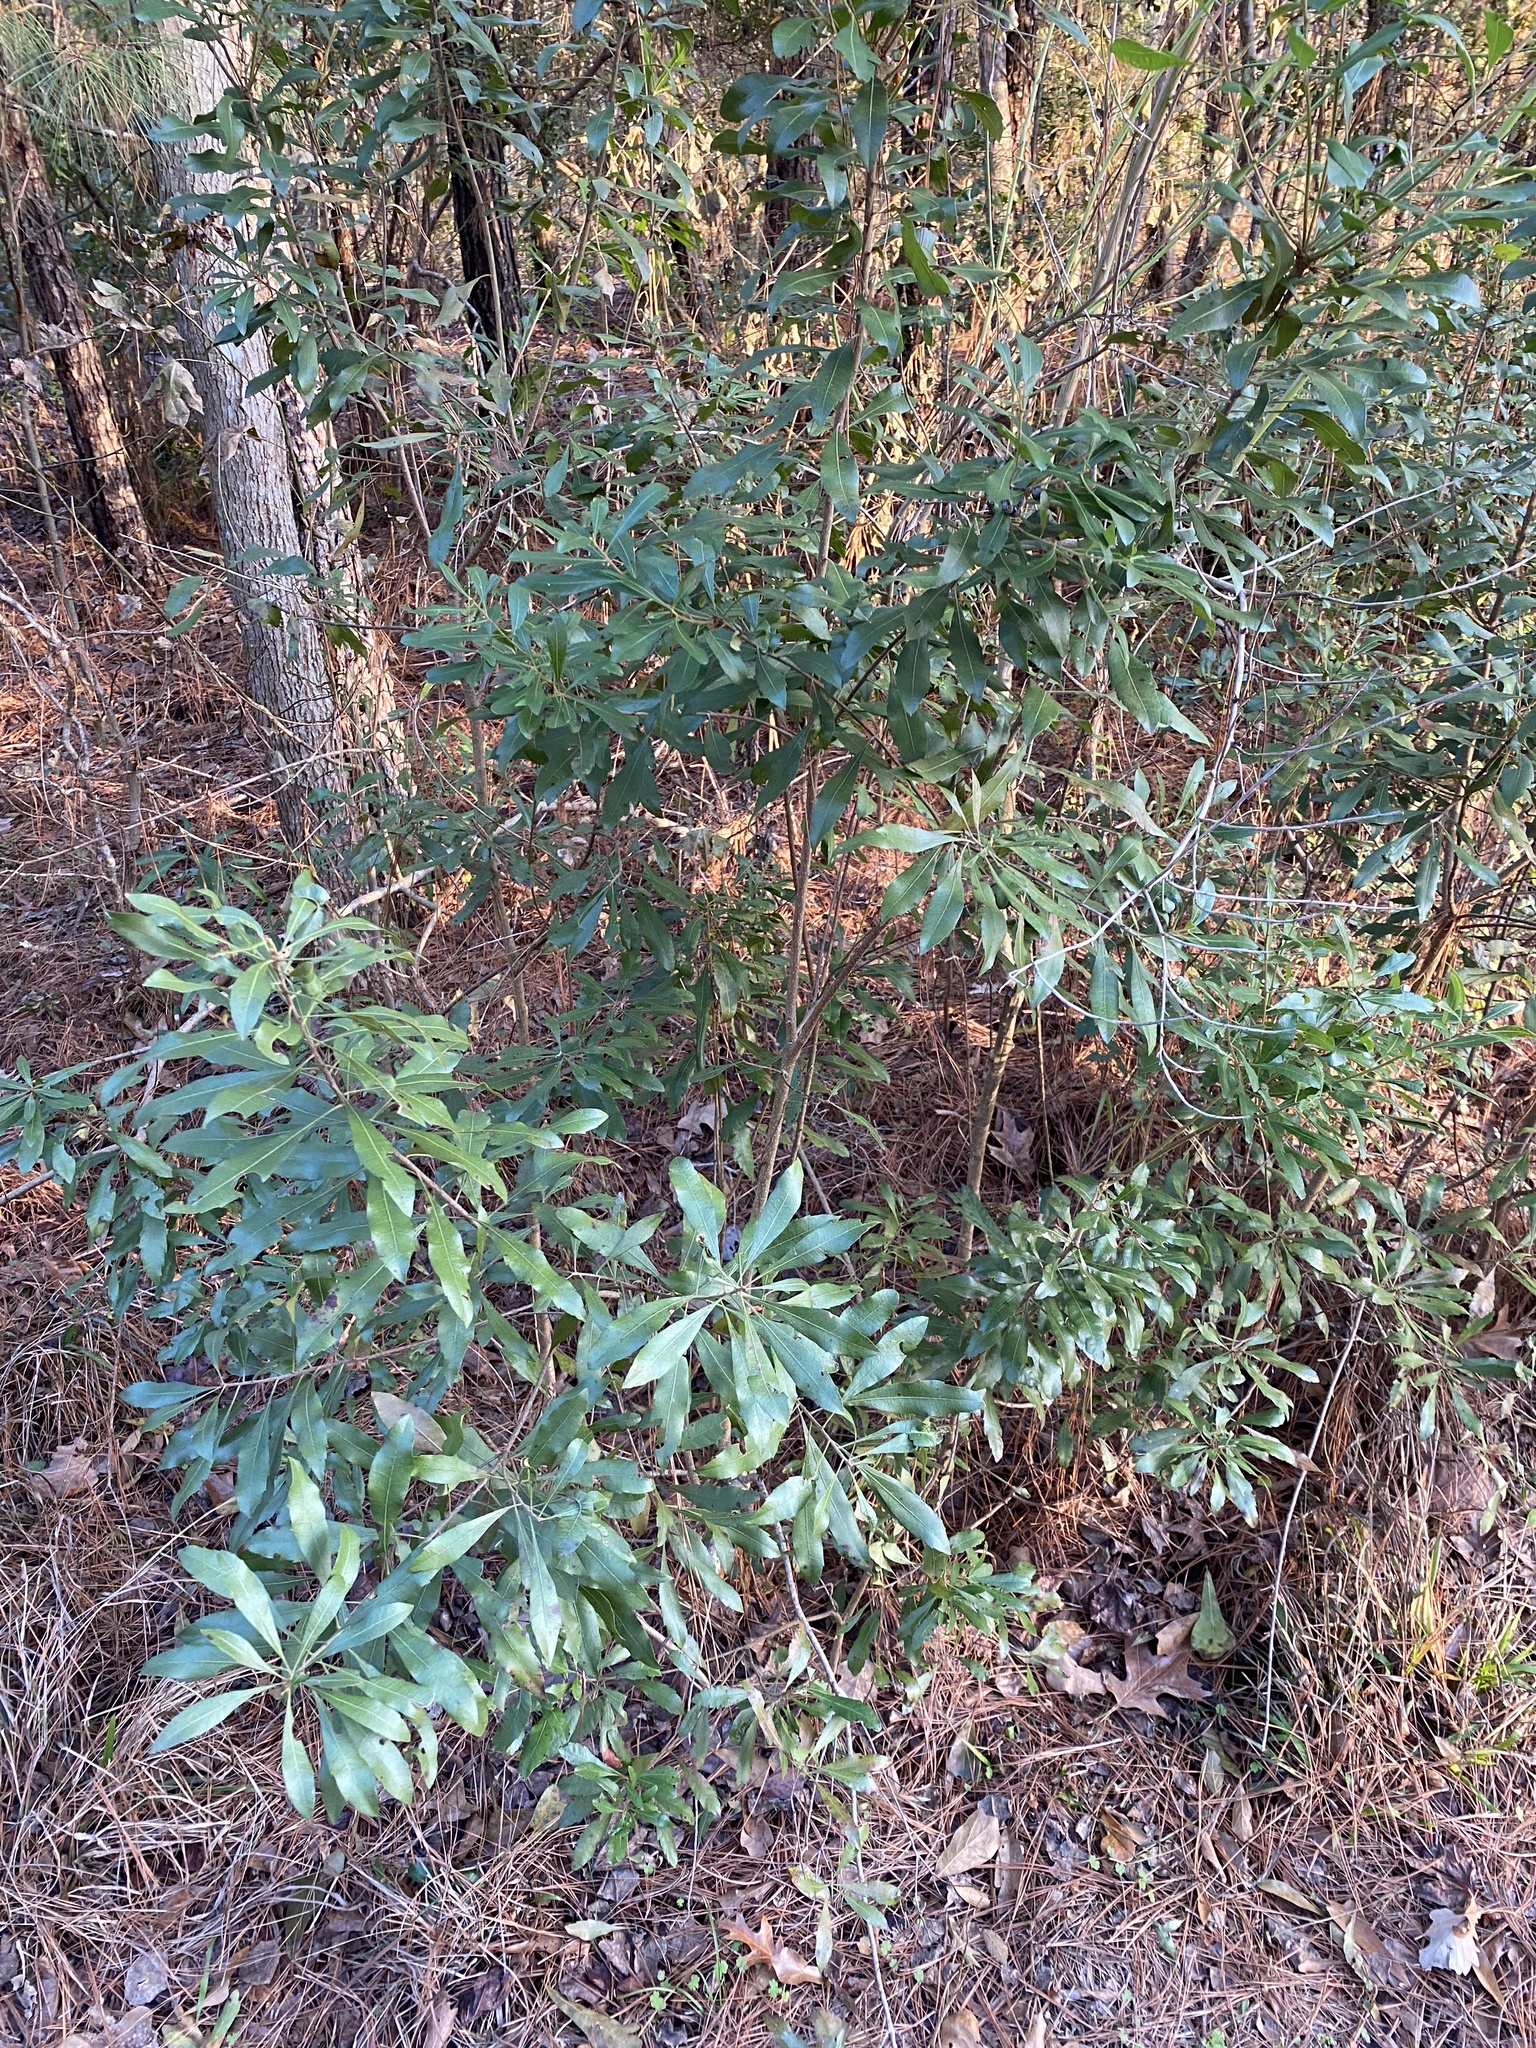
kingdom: Plantae
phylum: Tracheophyta
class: Magnoliopsida
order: Fagales
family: Myricaceae
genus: Morella
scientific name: Morella cerifera
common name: Wax myrtle
